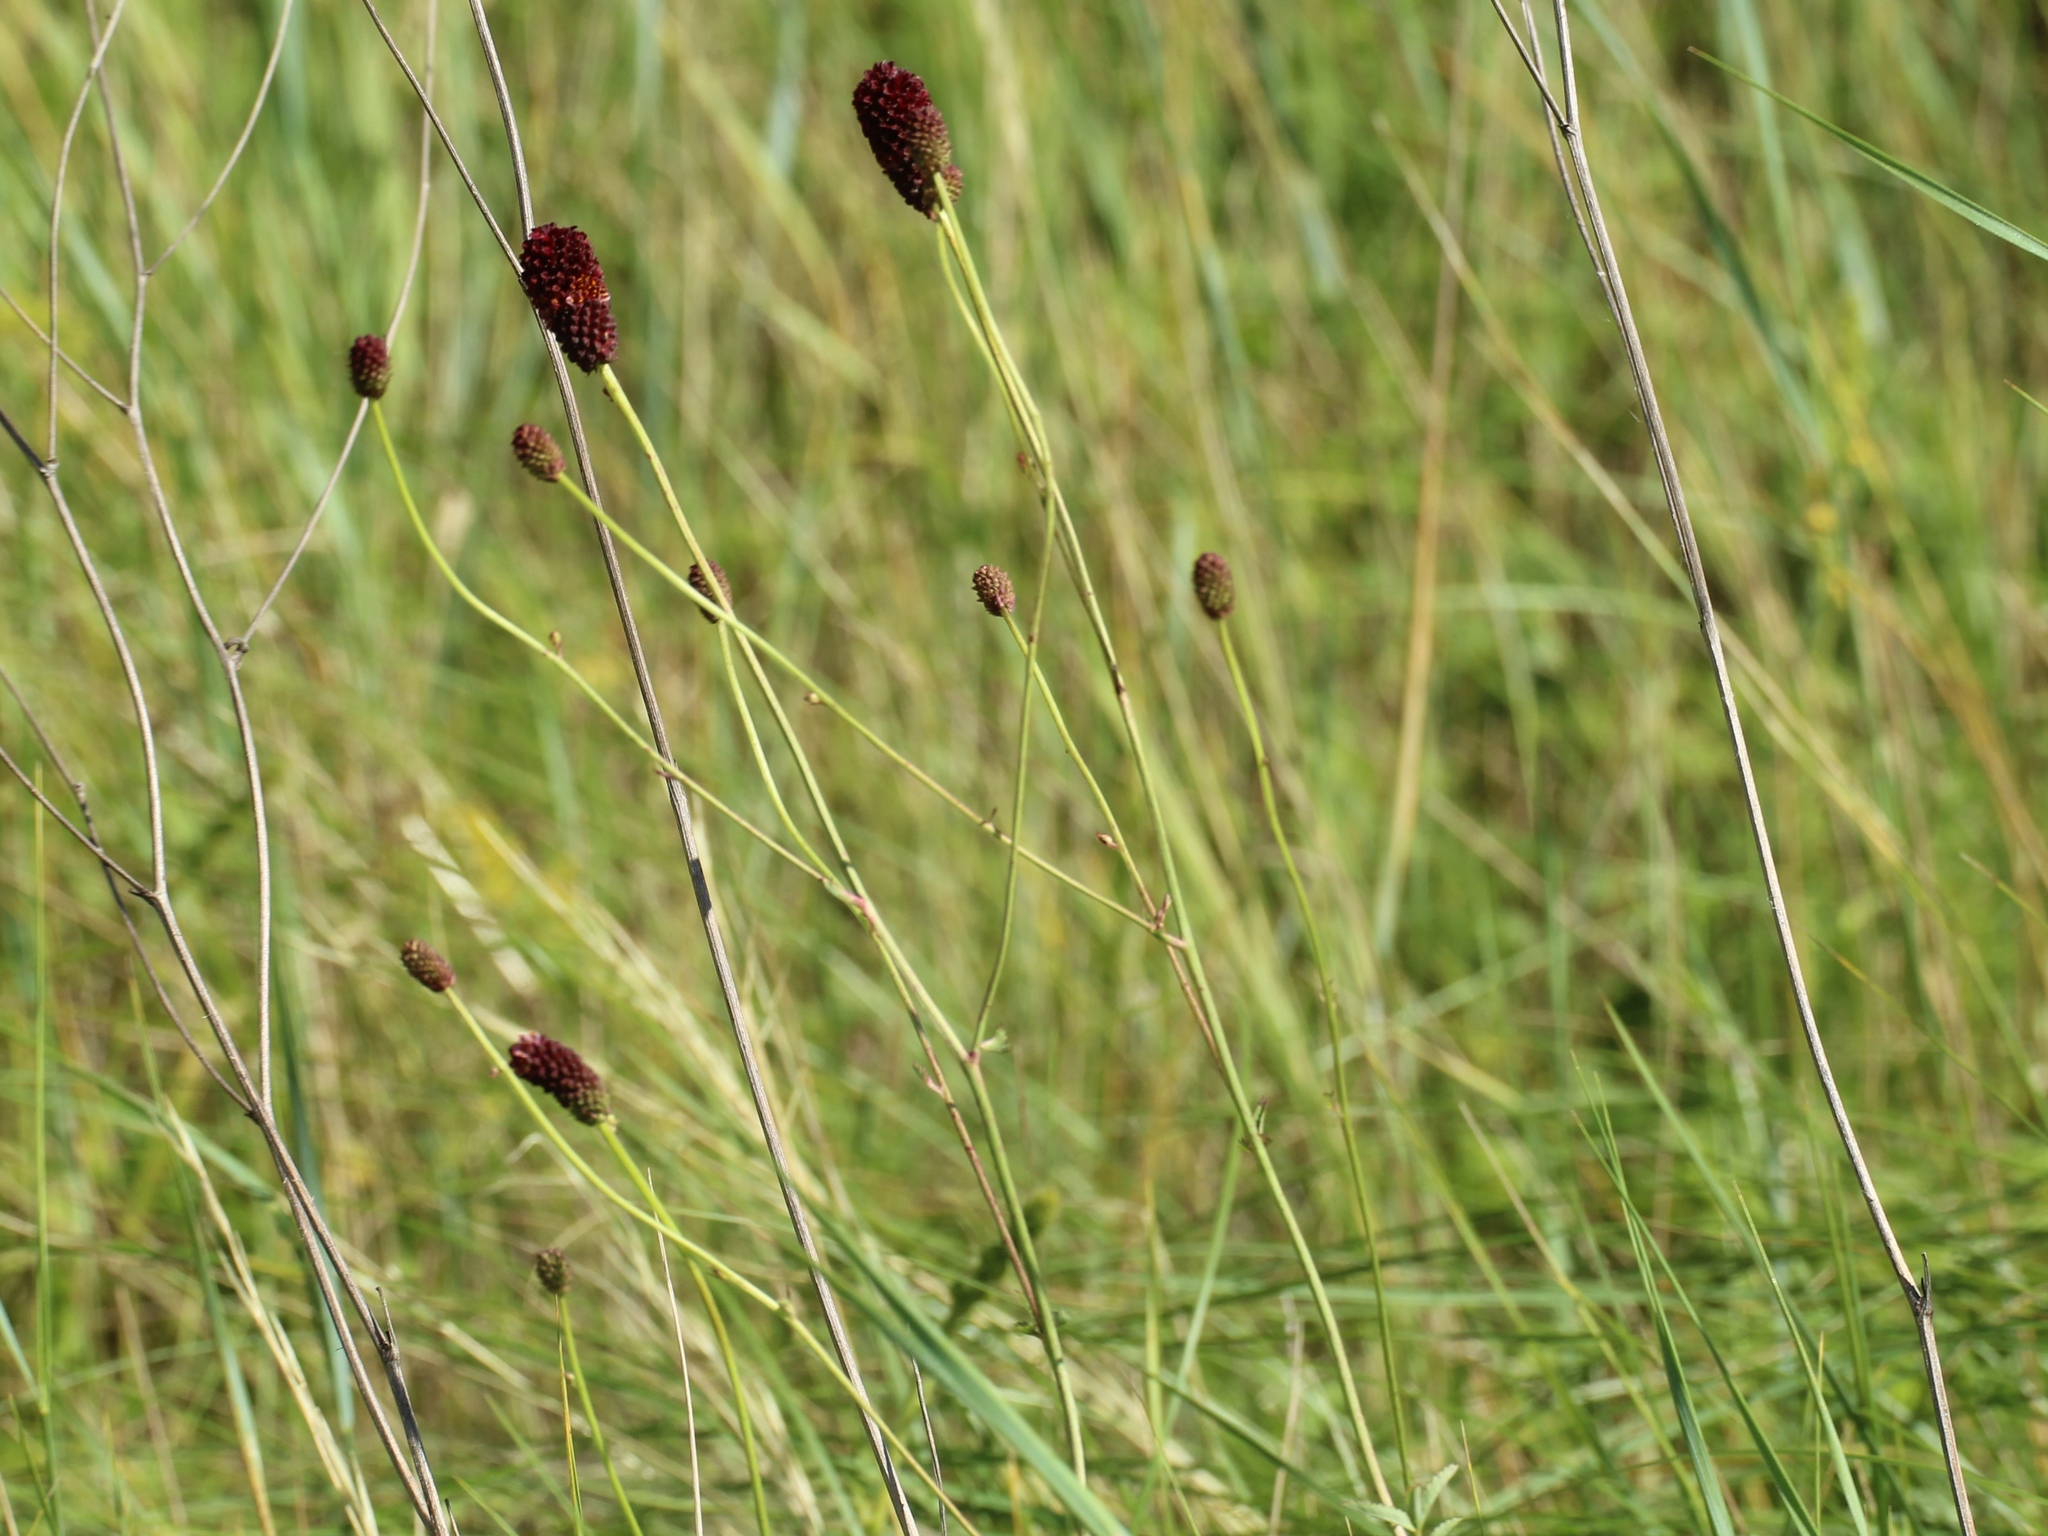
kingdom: Plantae
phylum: Tracheophyta
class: Magnoliopsida
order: Rosales
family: Rosaceae
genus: Sanguisorba
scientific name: Sanguisorba officinalis
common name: Great burnet
